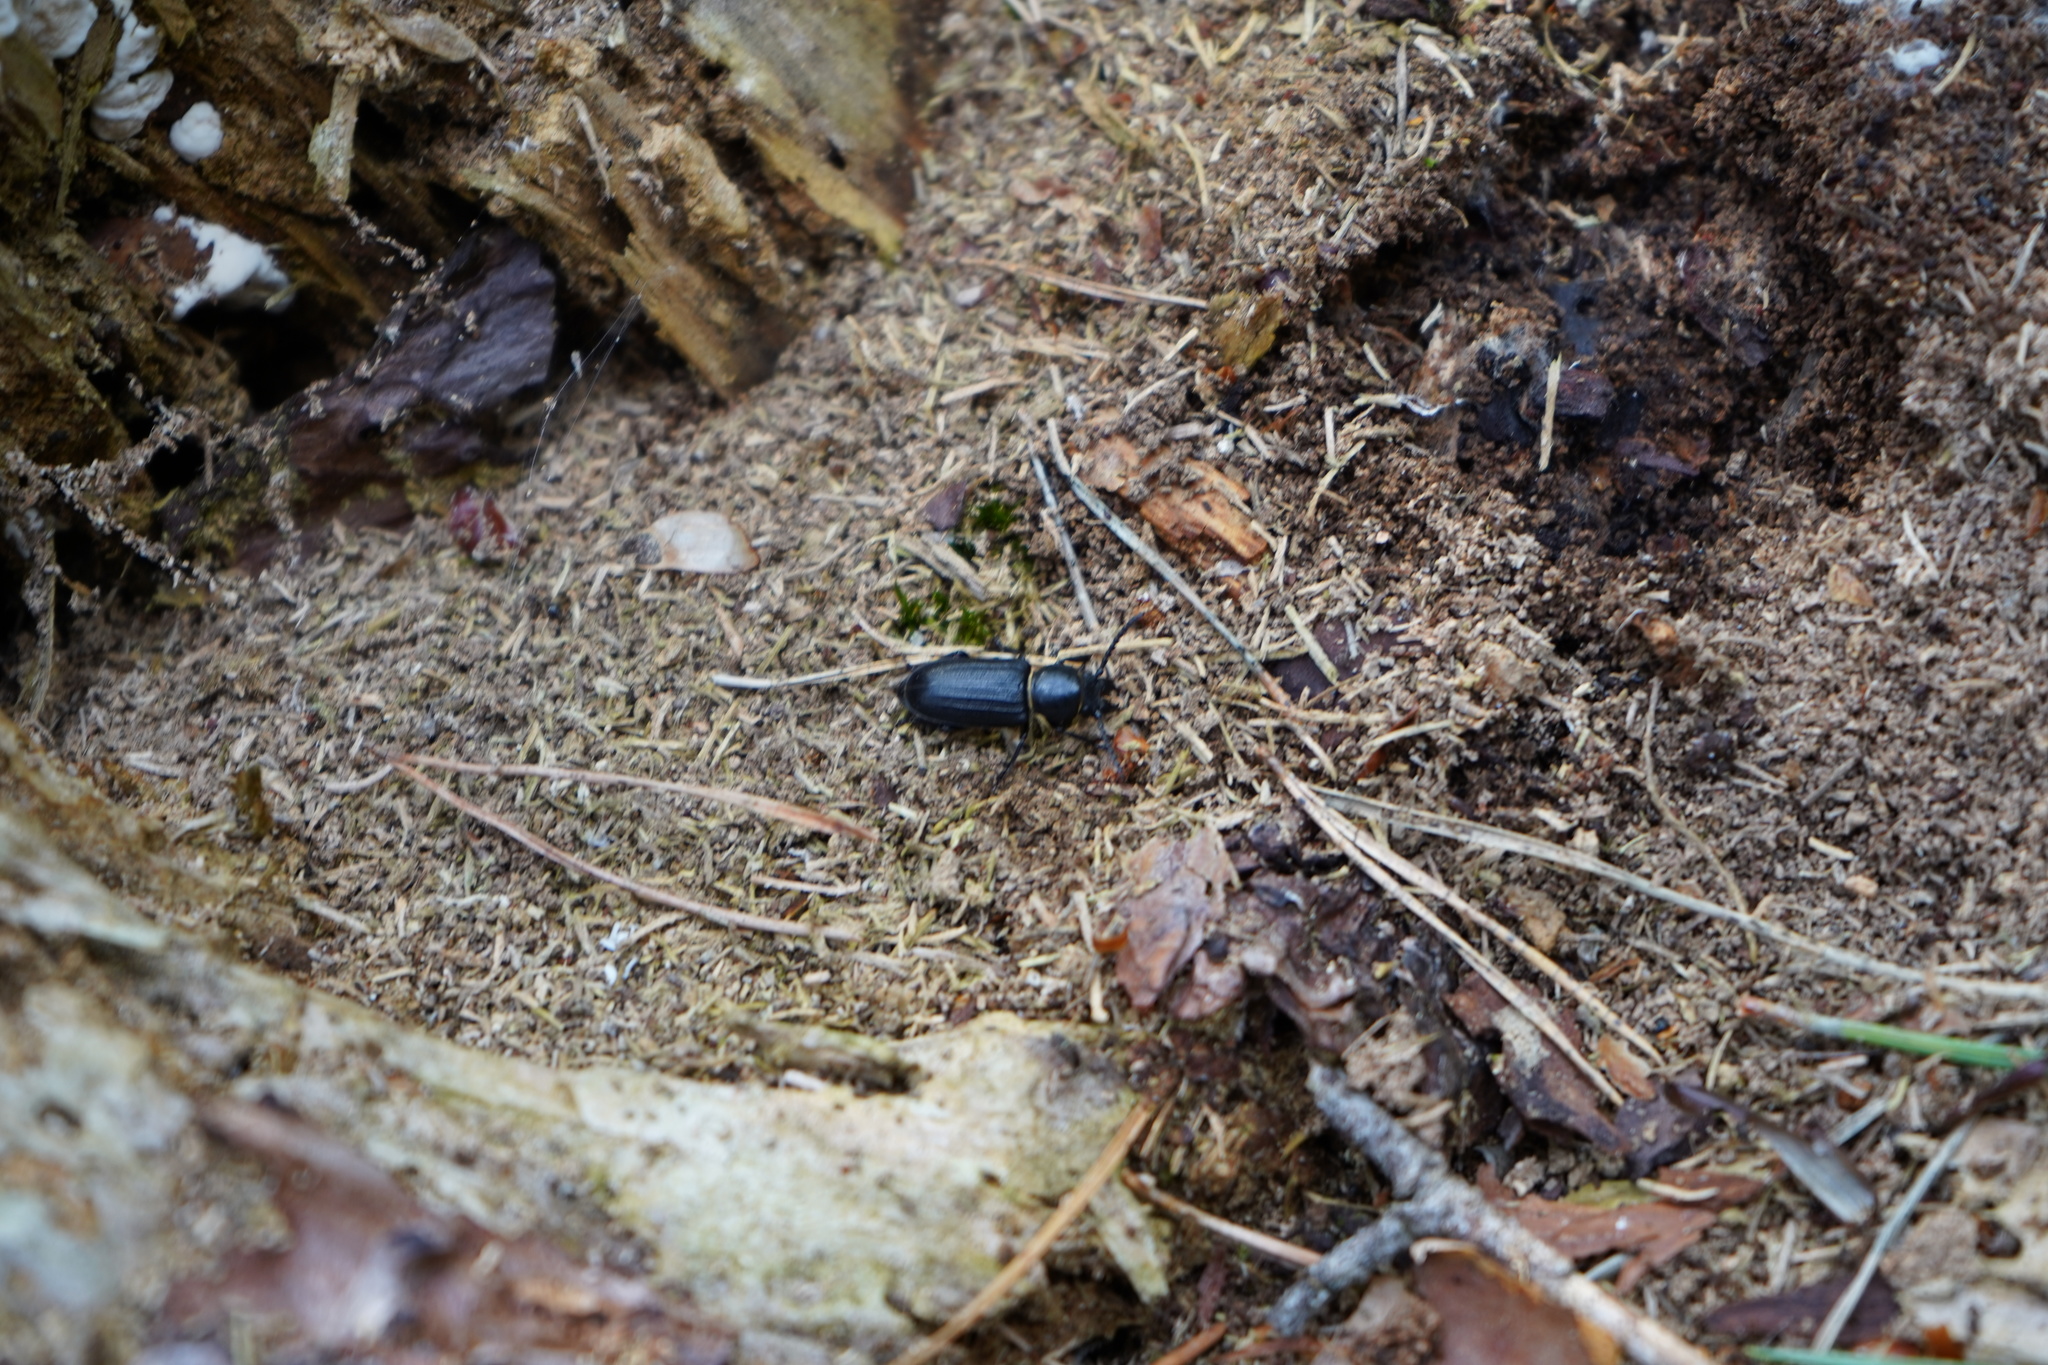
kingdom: Animalia
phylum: Arthropoda
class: Insecta
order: Coleoptera
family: Cerambycidae
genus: Spondylis
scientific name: Spondylis buprestoides
